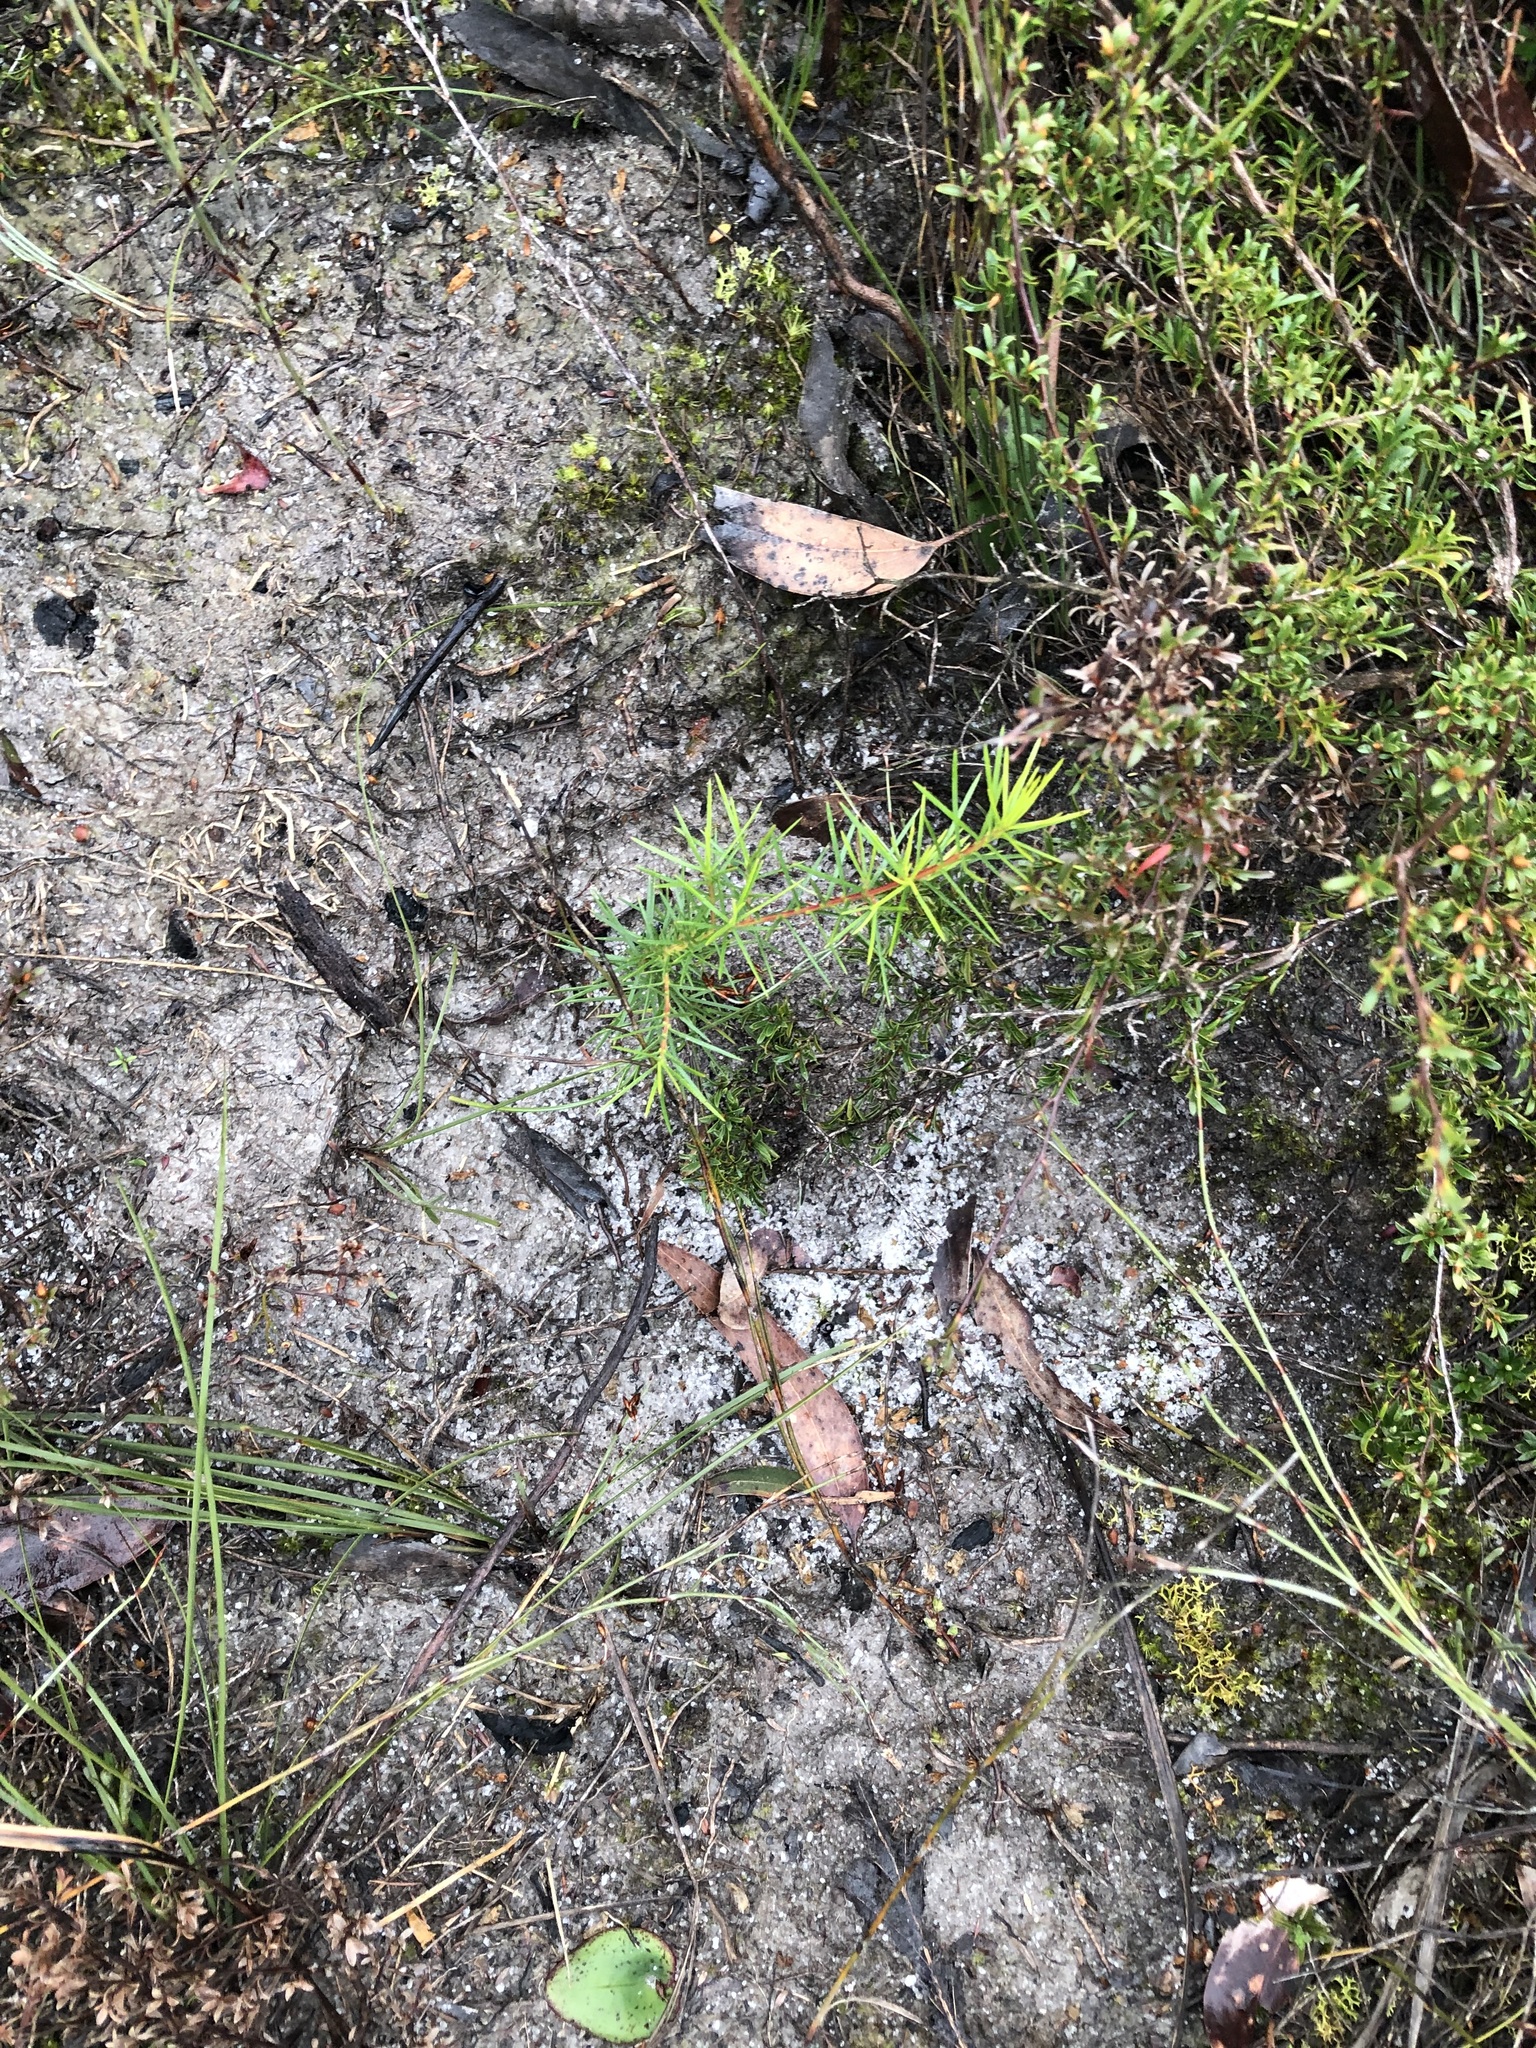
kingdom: Plantae
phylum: Tracheophyta
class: Magnoliopsida
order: Proteales
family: Proteaceae
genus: Persoonia
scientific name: Persoonia juniperina
